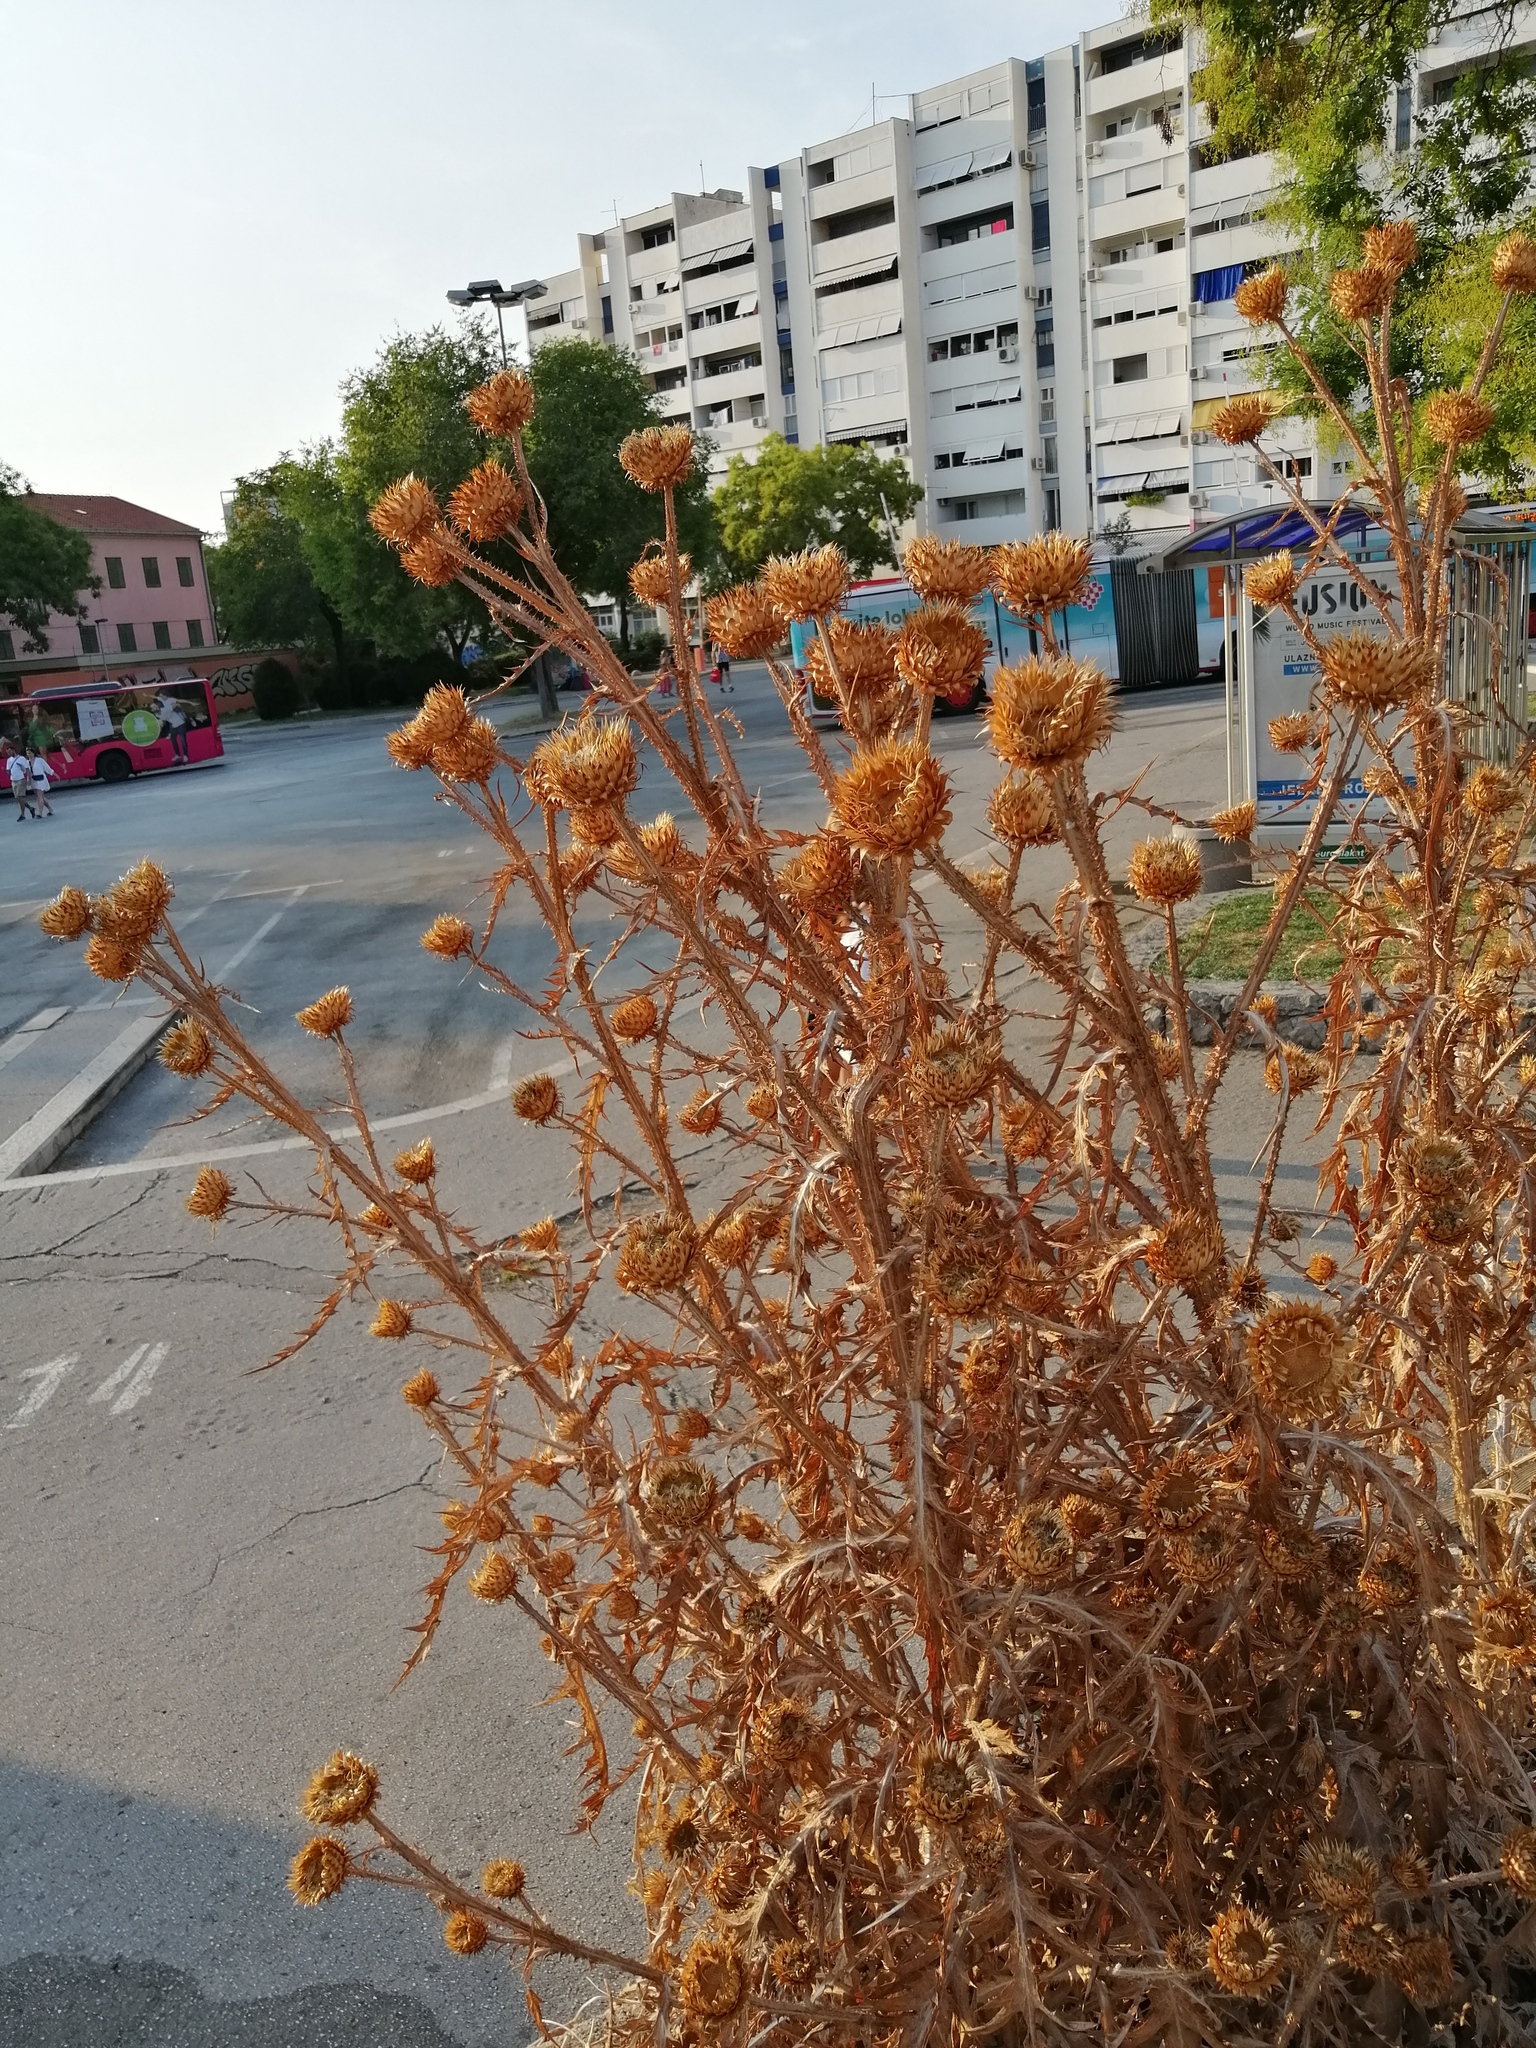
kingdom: Plantae
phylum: Tracheophyta
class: Magnoliopsida
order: Asterales
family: Asteraceae
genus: Onopordum
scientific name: Onopordum illyricum
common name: Illyrian thistle
